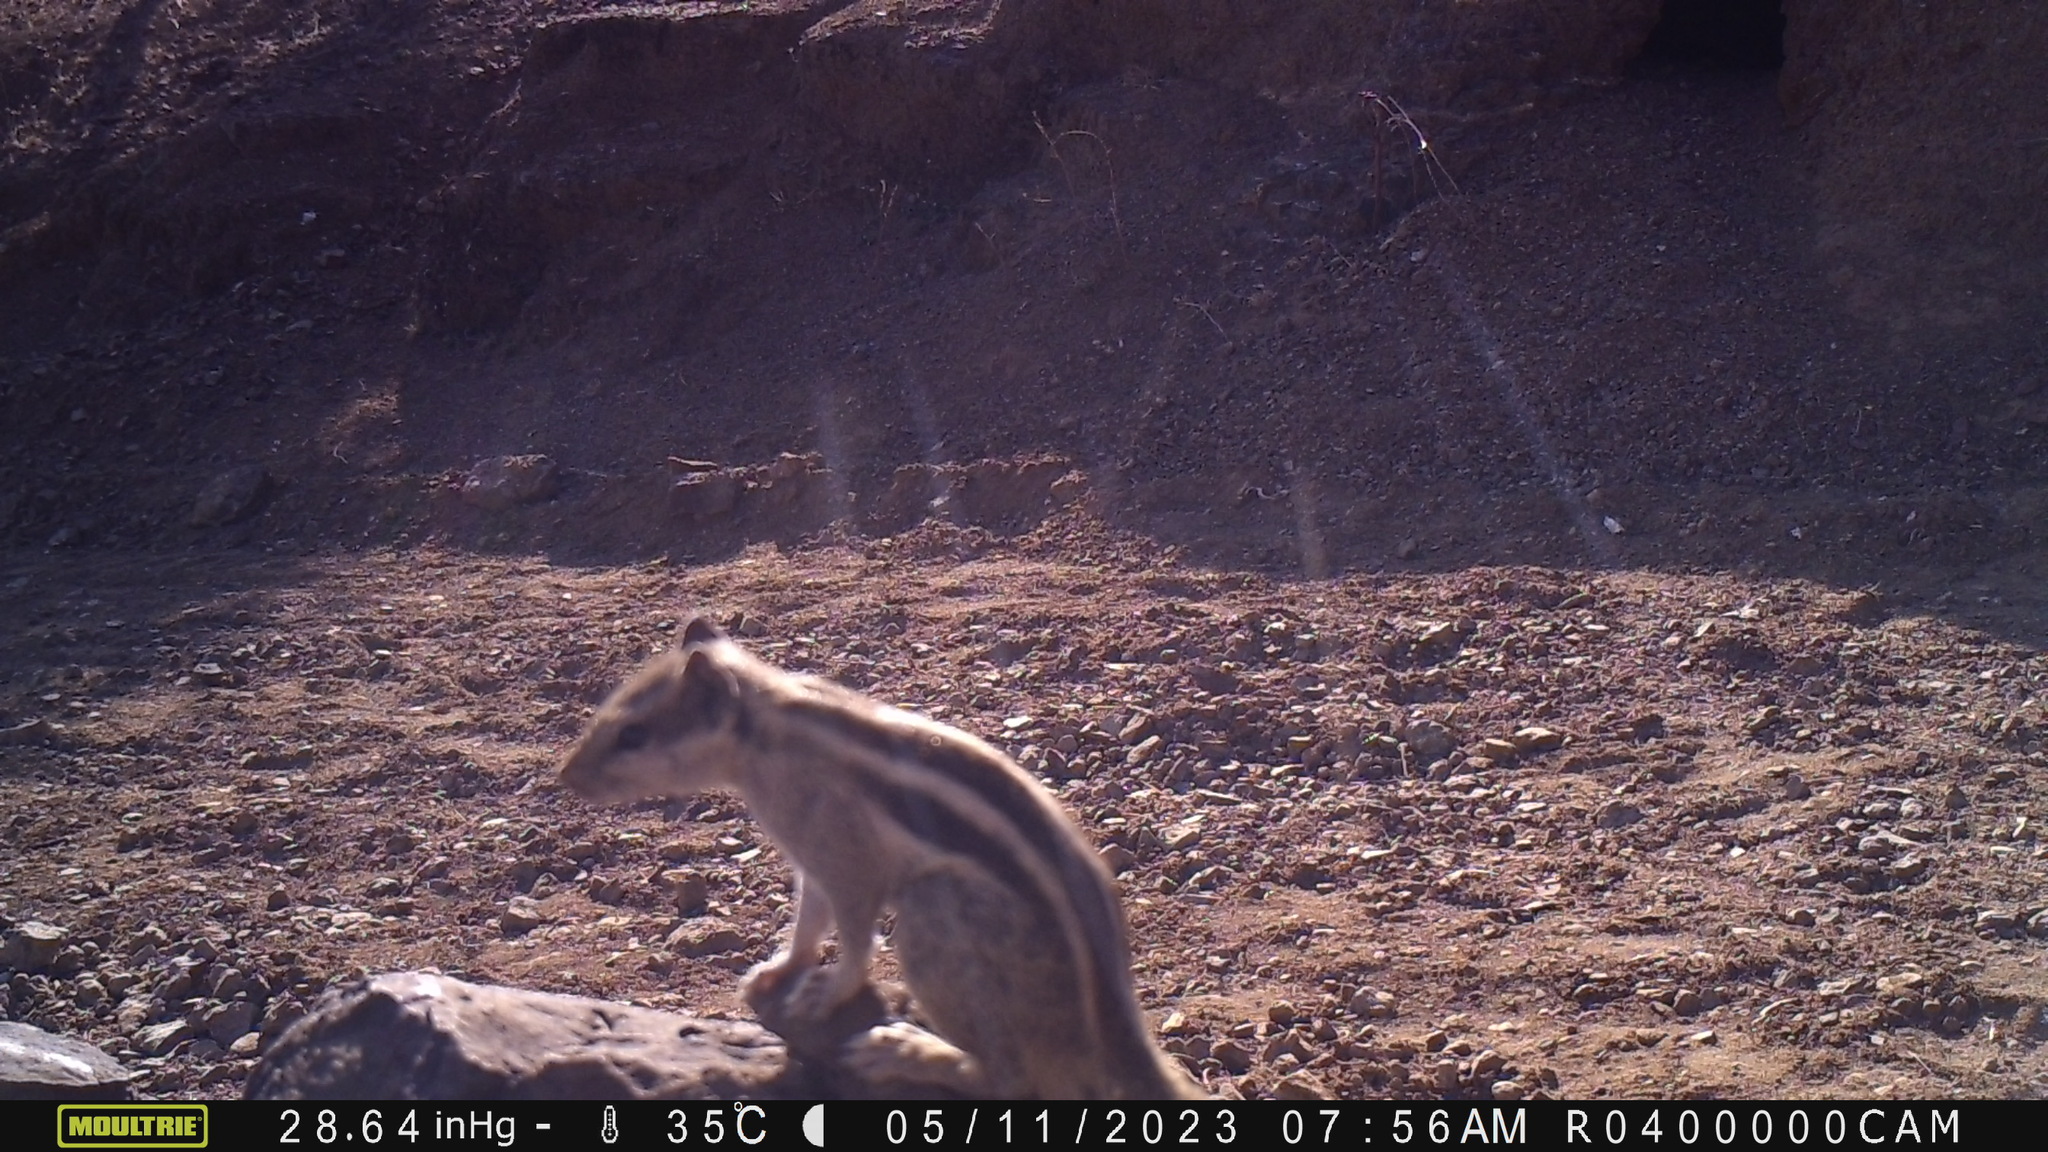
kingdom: Animalia
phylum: Chordata
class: Mammalia
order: Rodentia
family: Sciuridae
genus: Funambulus
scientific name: Funambulus pennantii
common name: Northern palm squirrel
